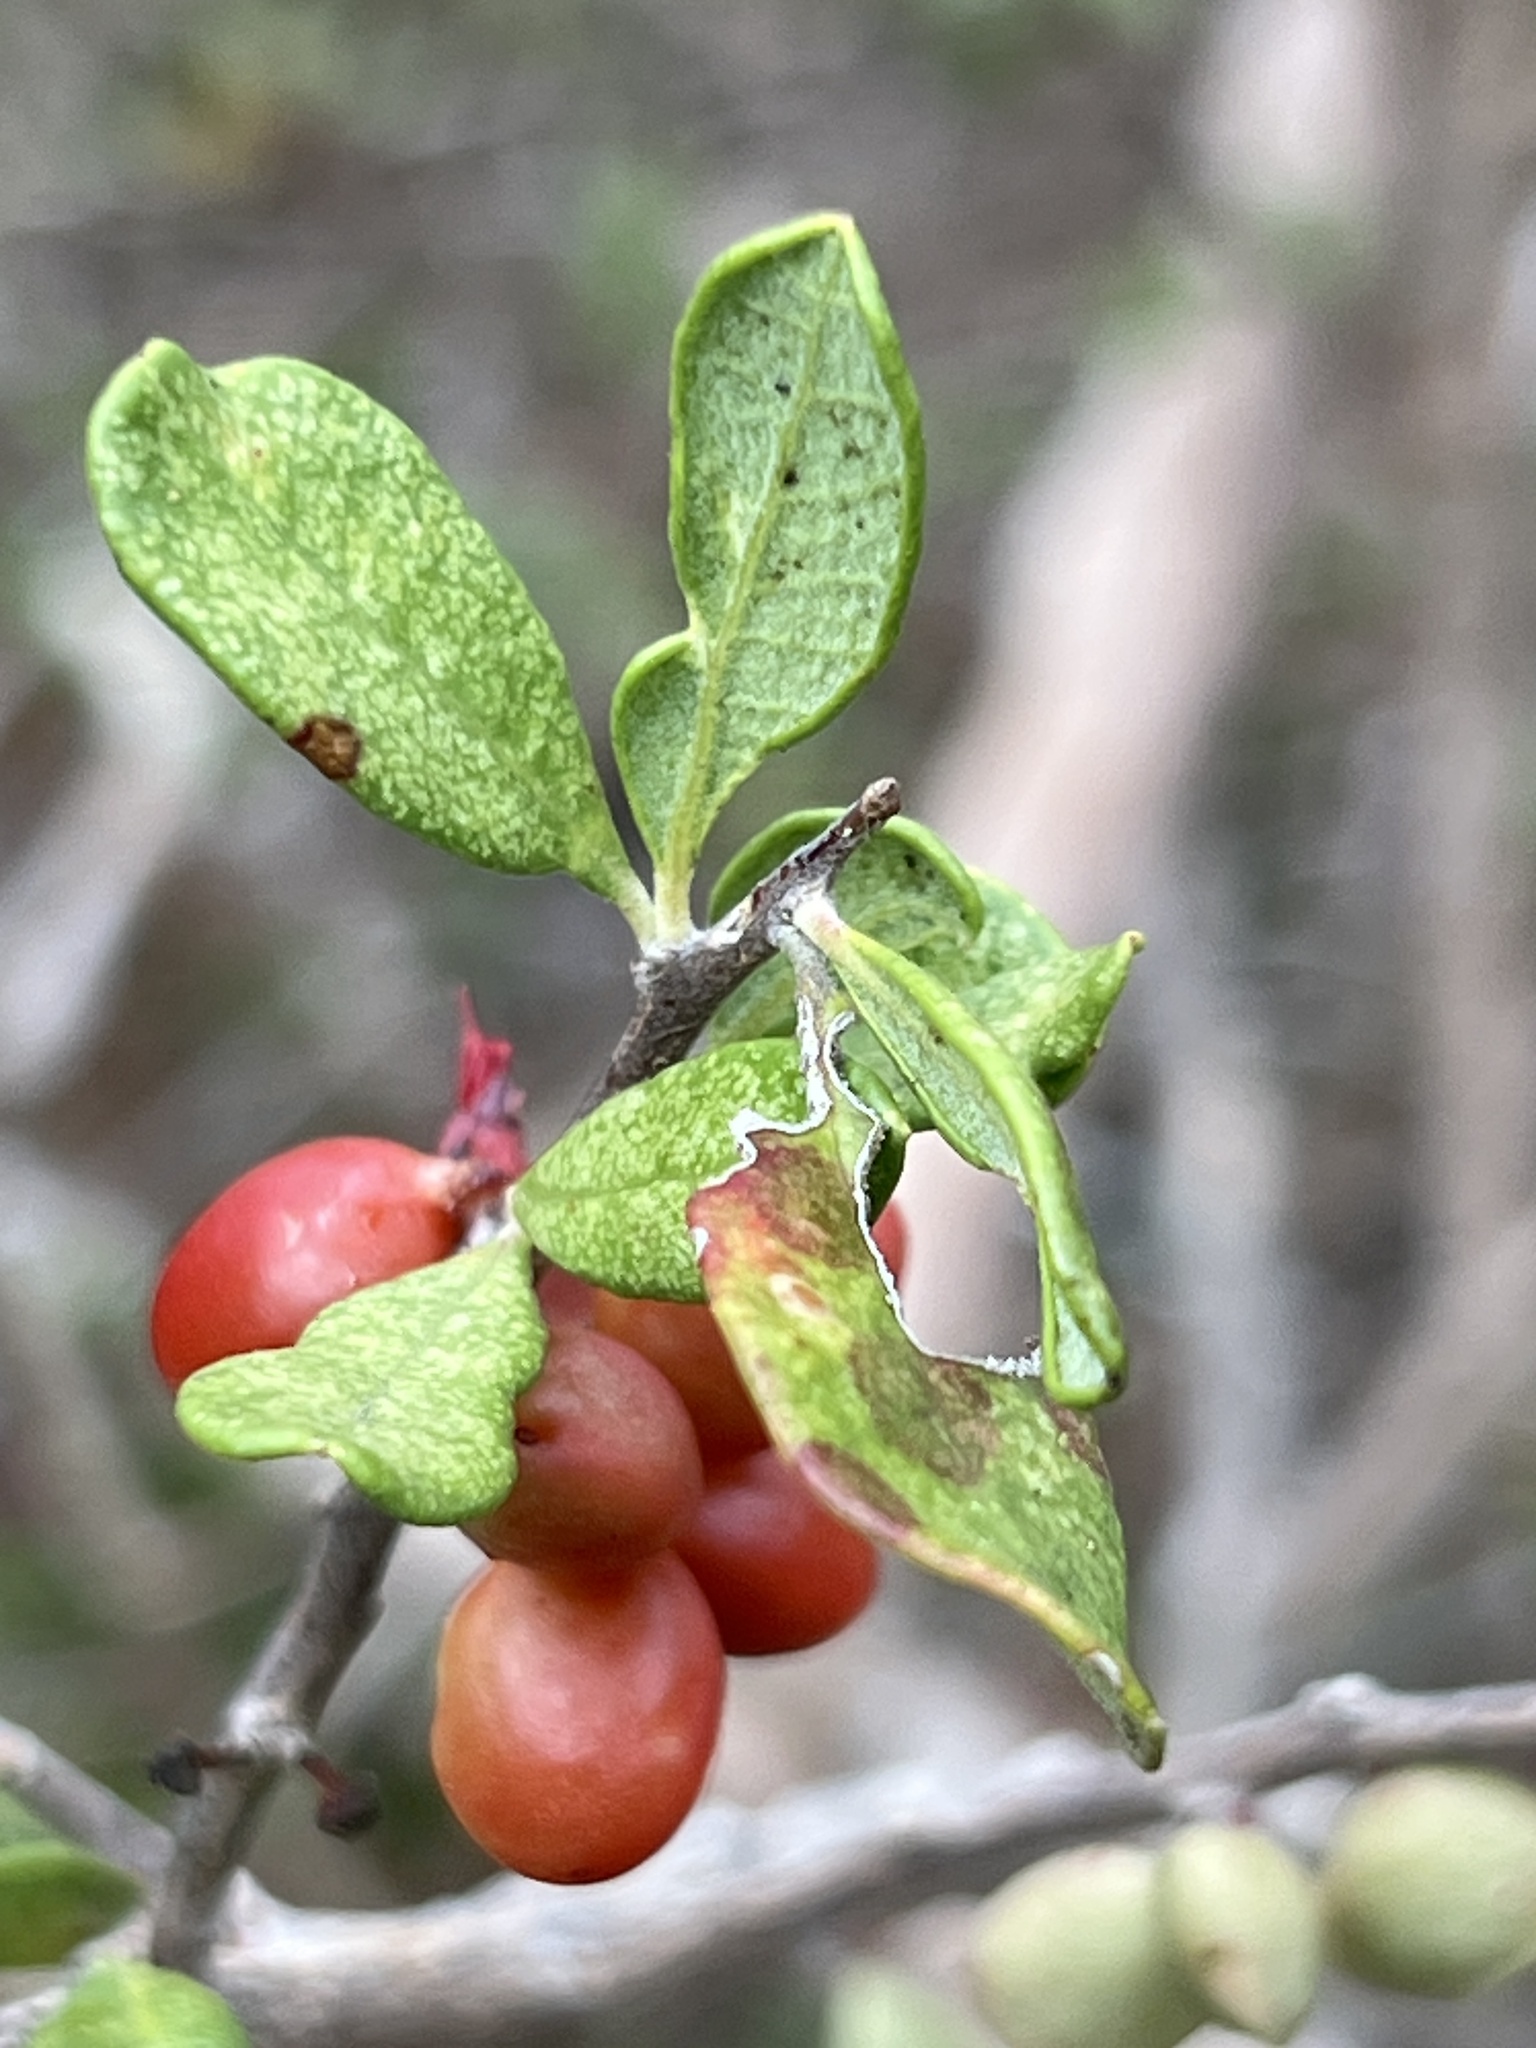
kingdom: Plantae
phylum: Tracheophyta
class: Magnoliopsida
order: Sapindales
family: Simaroubaceae
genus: Castela
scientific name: Castela galapageia
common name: Bitterbush
